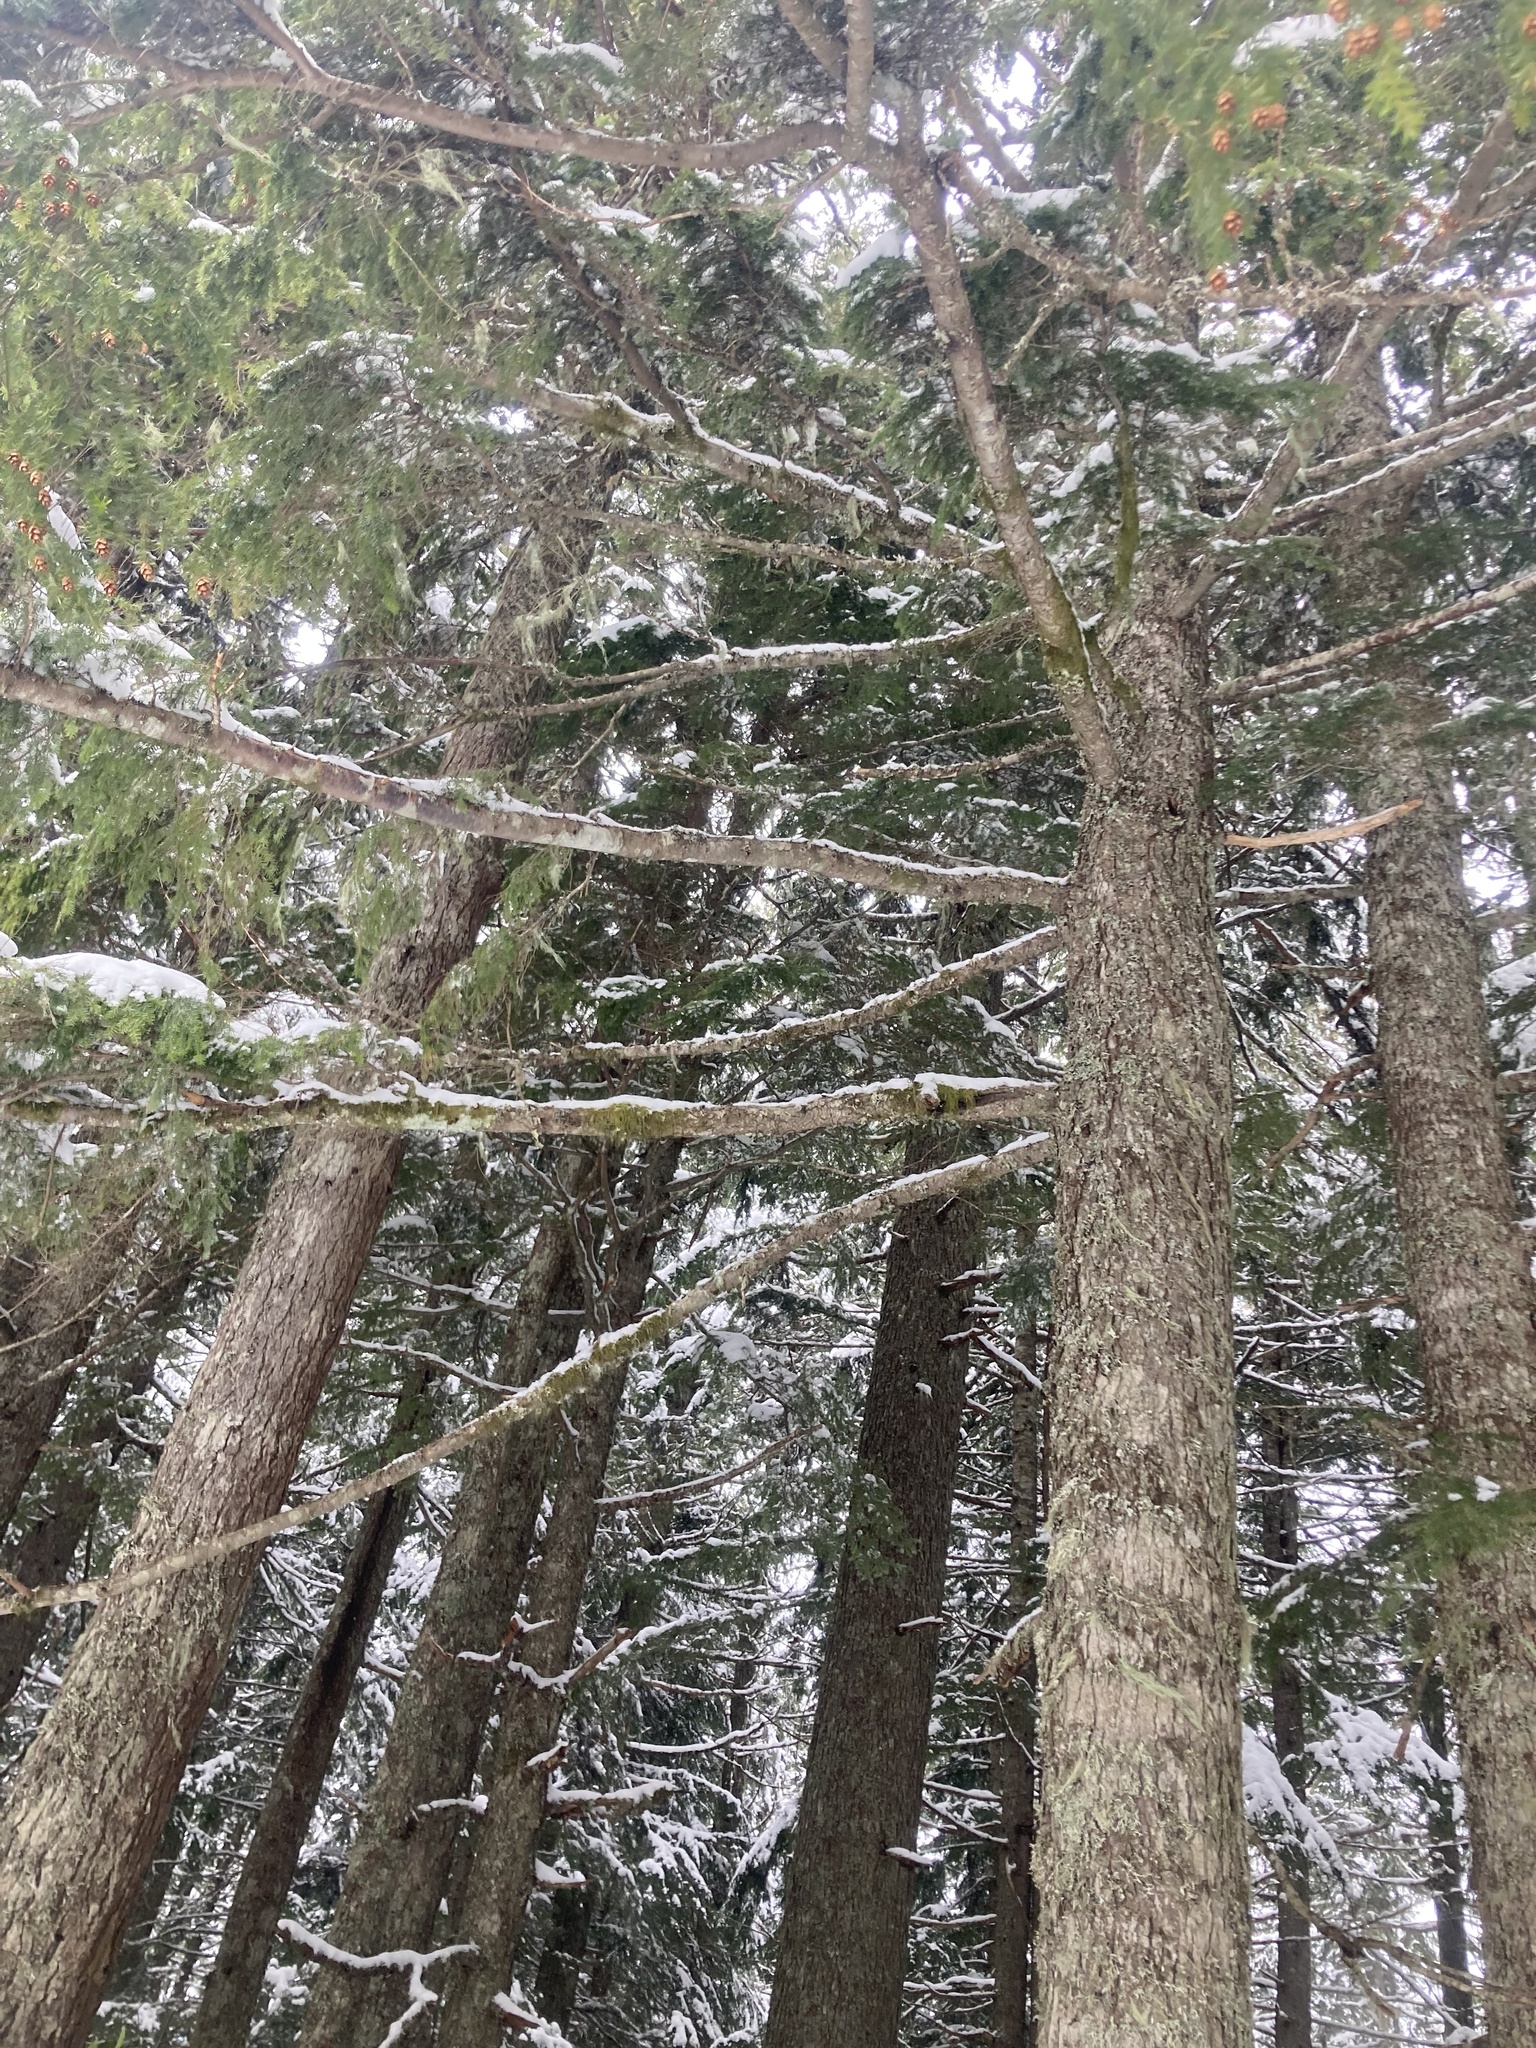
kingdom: Plantae
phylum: Tracheophyta
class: Pinopsida
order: Pinales
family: Pinaceae
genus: Tsuga
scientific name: Tsuga heterophylla
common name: Western hemlock
